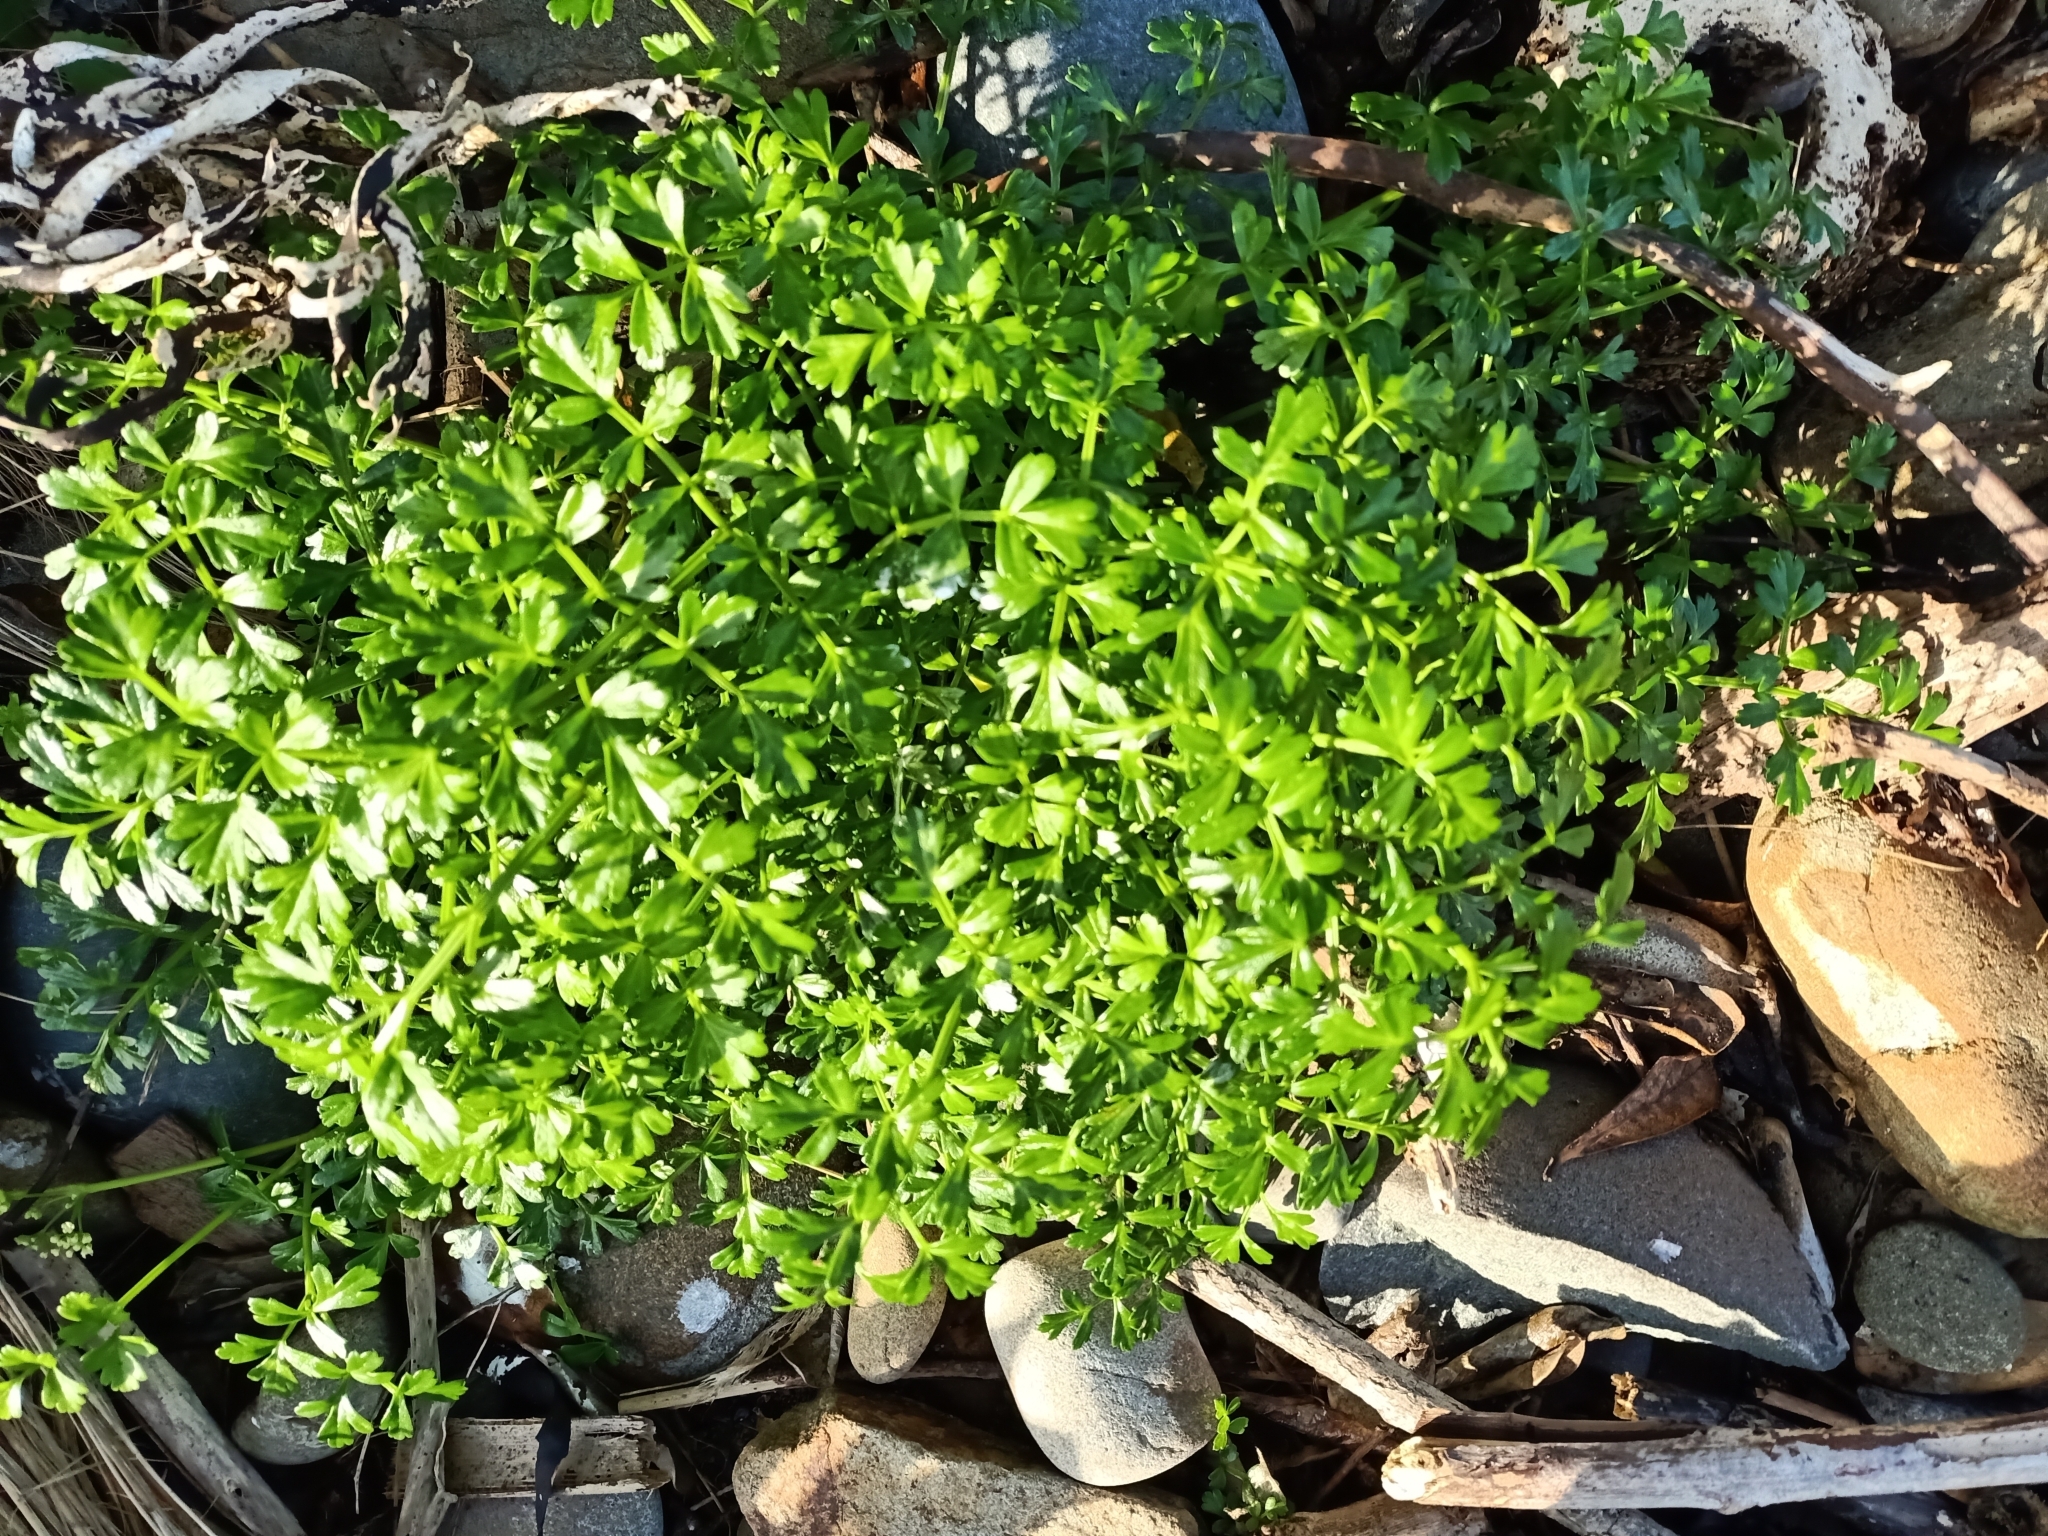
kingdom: Plantae
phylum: Tracheophyta
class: Magnoliopsida
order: Apiales
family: Apiaceae
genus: Apium
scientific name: Apium prostratum
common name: Prostrate marshwort
